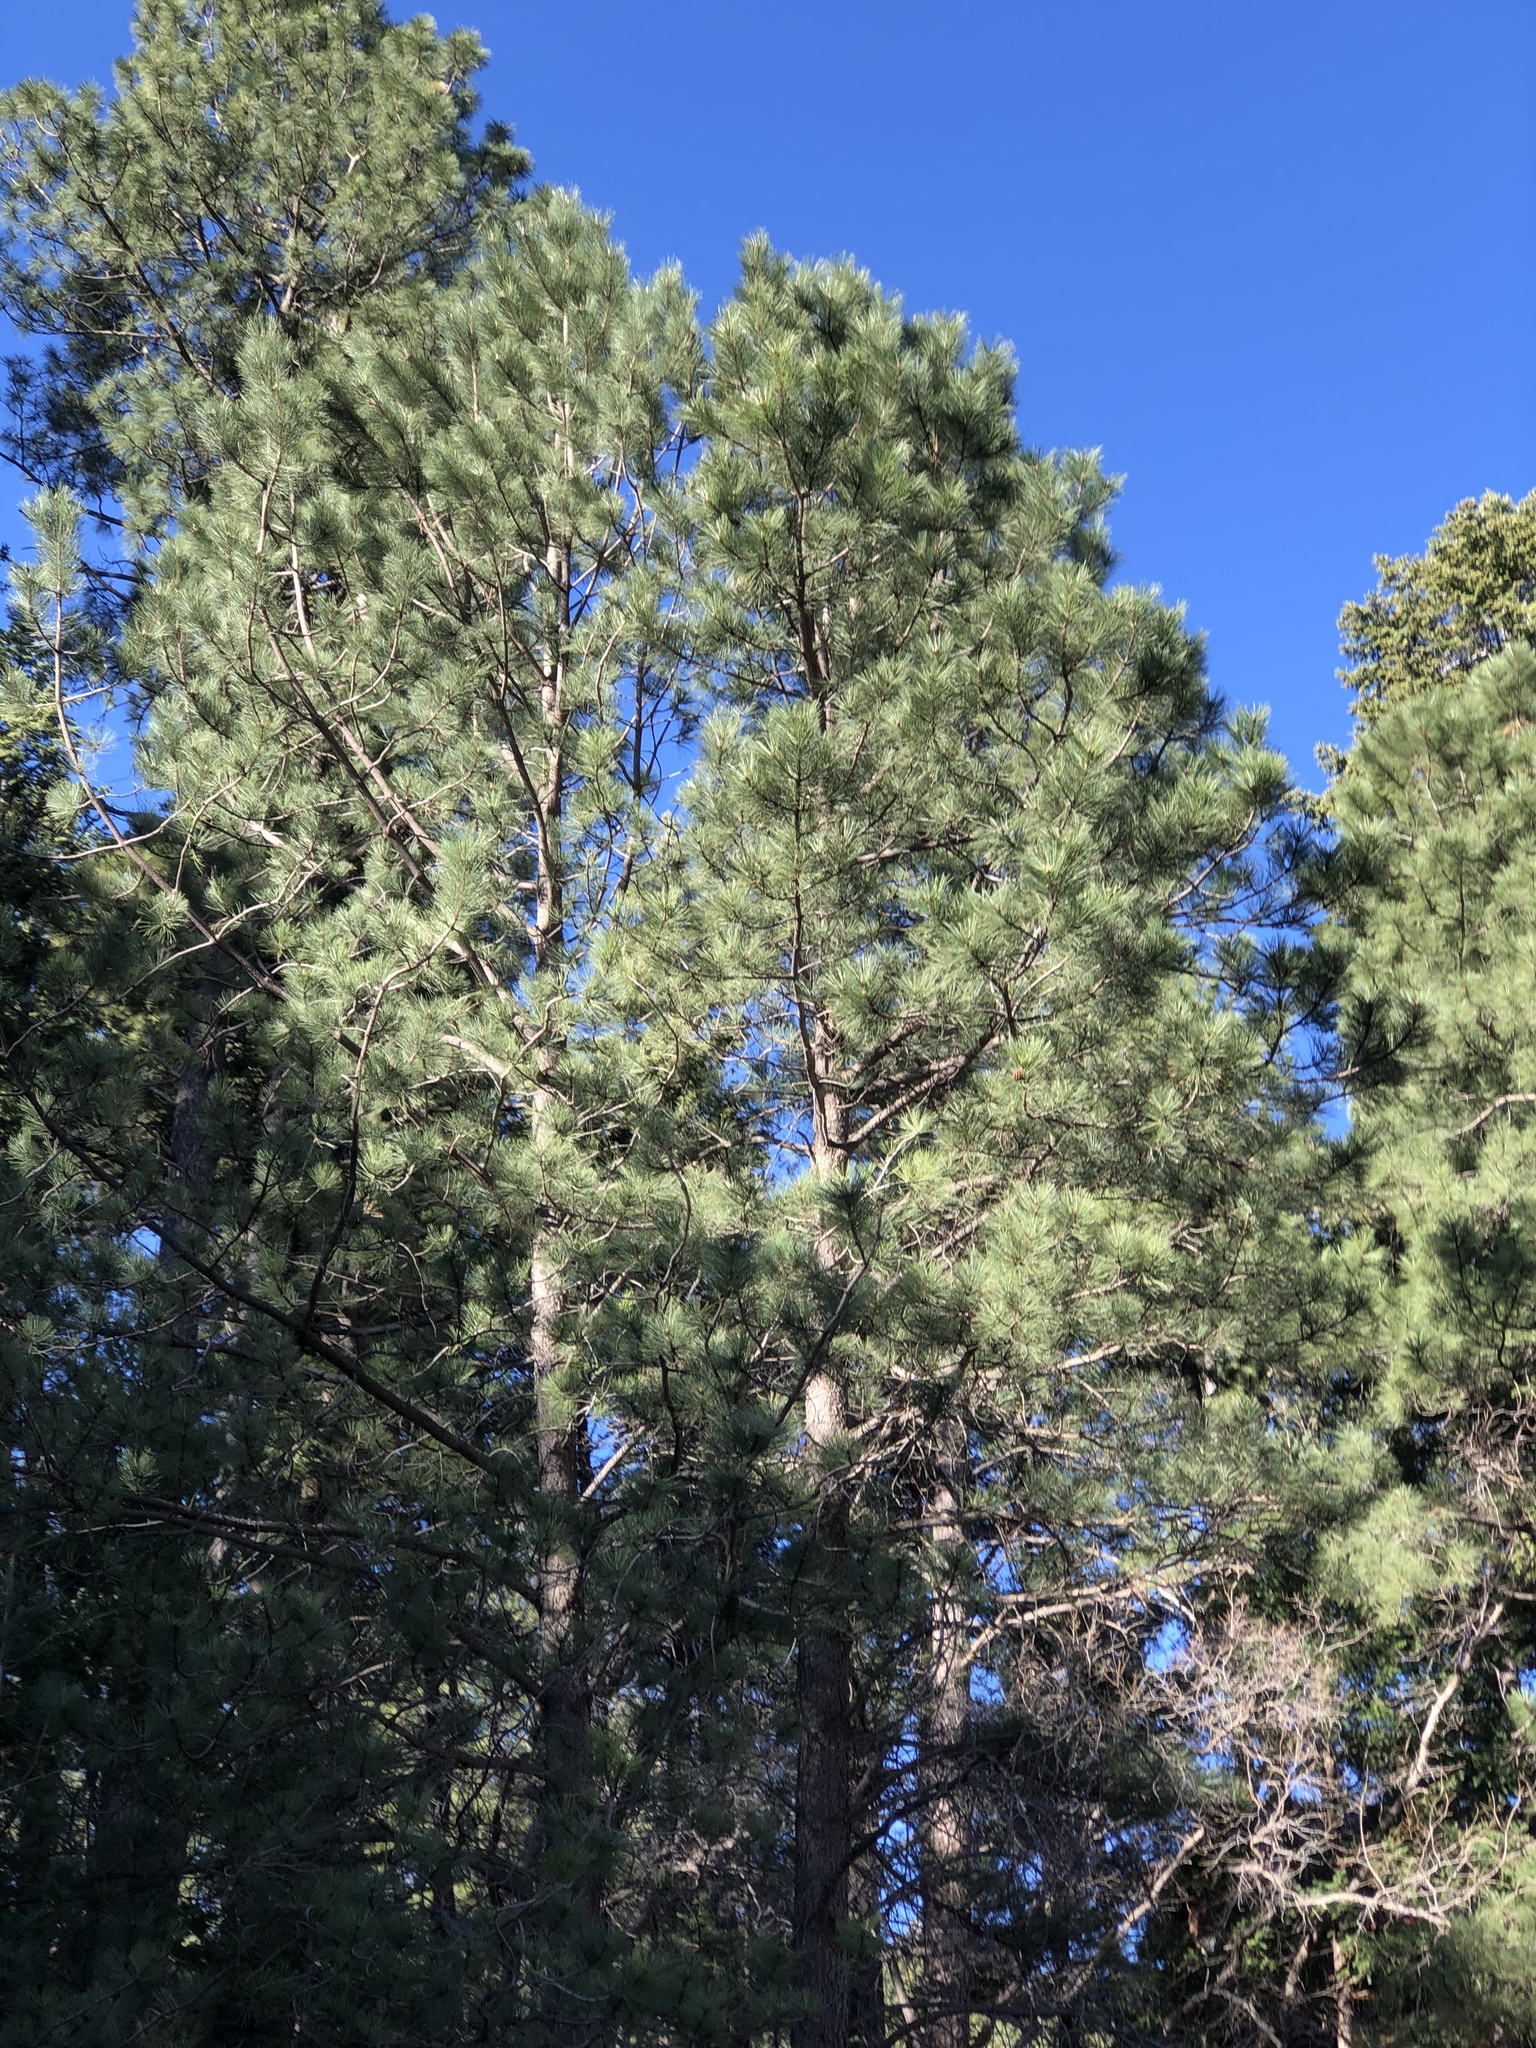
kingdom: Plantae
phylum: Tracheophyta
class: Pinopsida
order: Pinales
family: Pinaceae
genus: Pinus
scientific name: Pinus ponderosa
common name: Western yellow-pine
